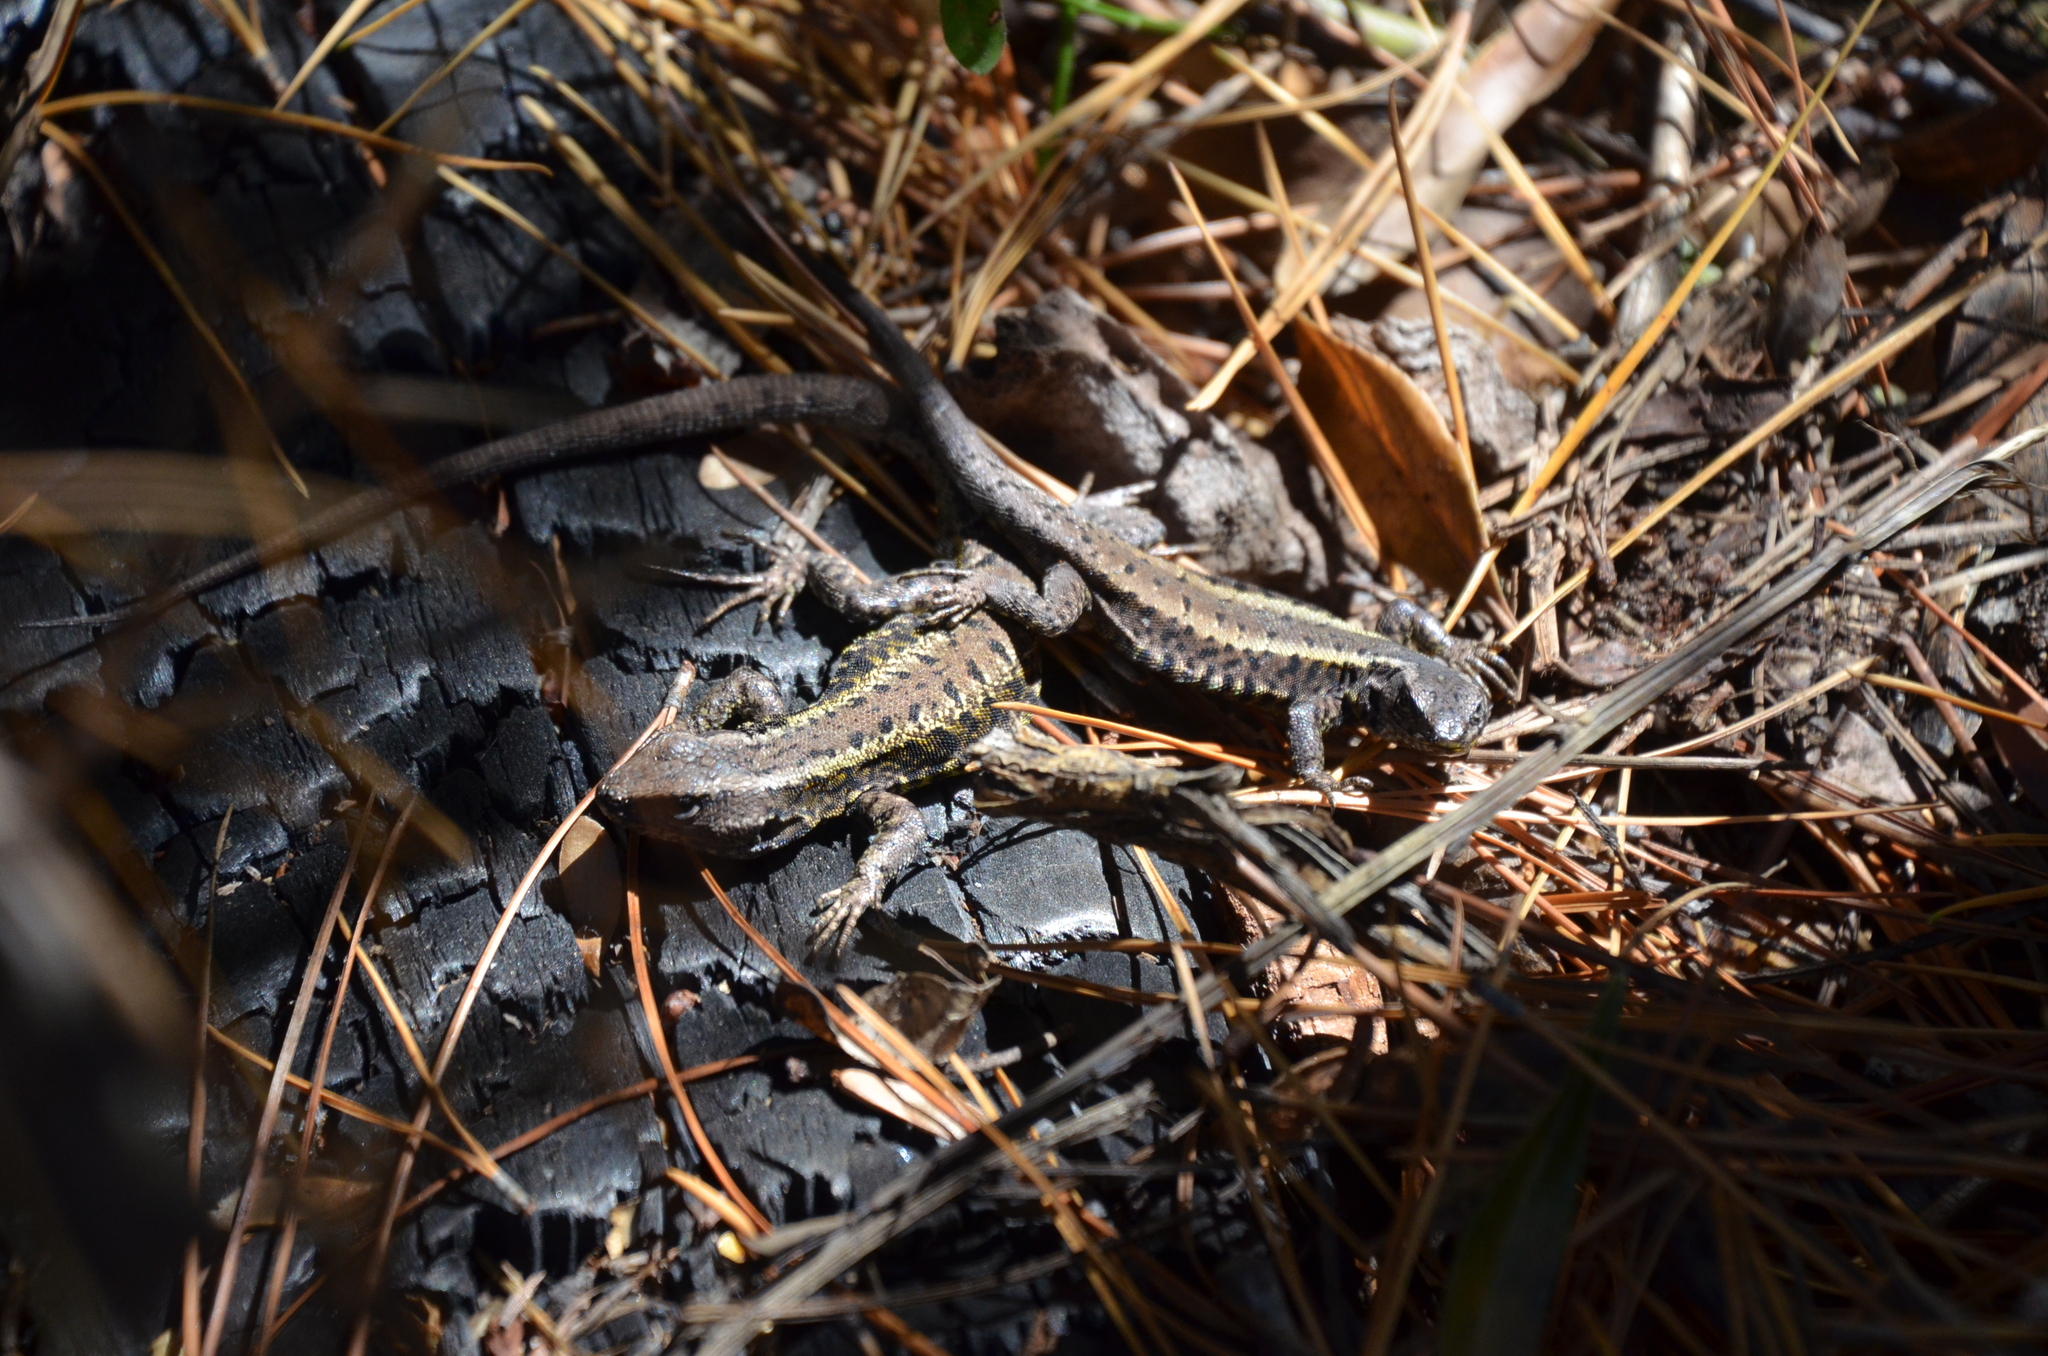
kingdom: Animalia
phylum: Chordata
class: Squamata
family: Liolaemidae
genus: Liolaemus
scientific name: Liolaemus pictus
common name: Painted tree iguana
